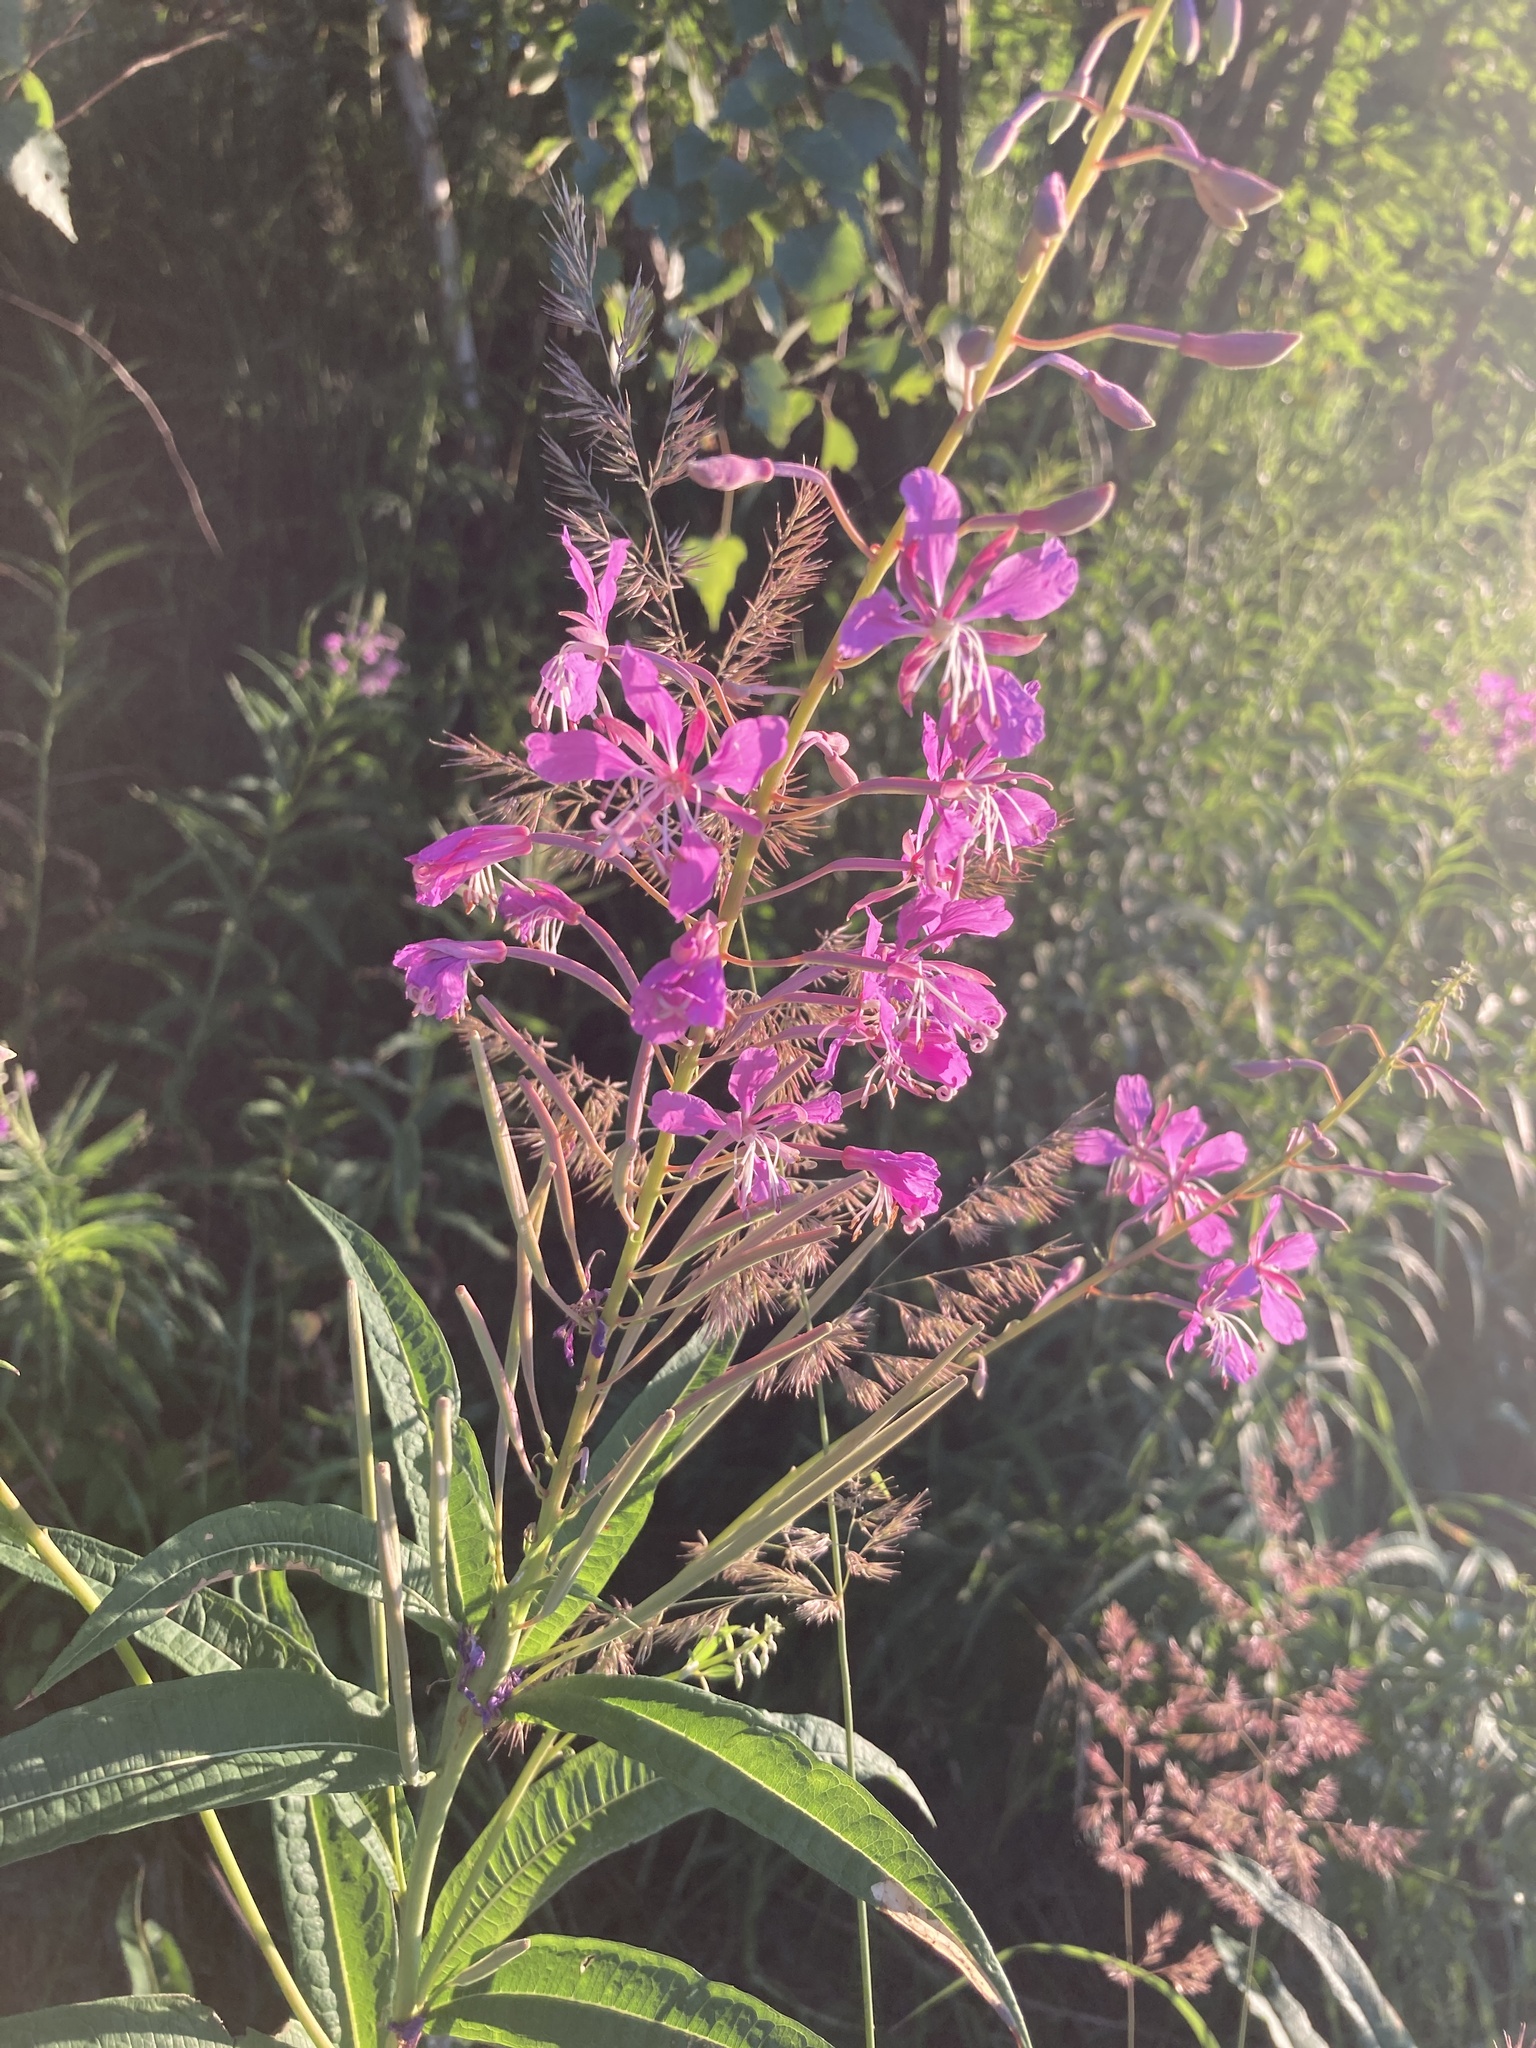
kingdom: Plantae
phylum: Tracheophyta
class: Magnoliopsida
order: Myrtales
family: Onagraceae
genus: Chamaenerion
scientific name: Chamaenerion angustifolium
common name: Fireweed
